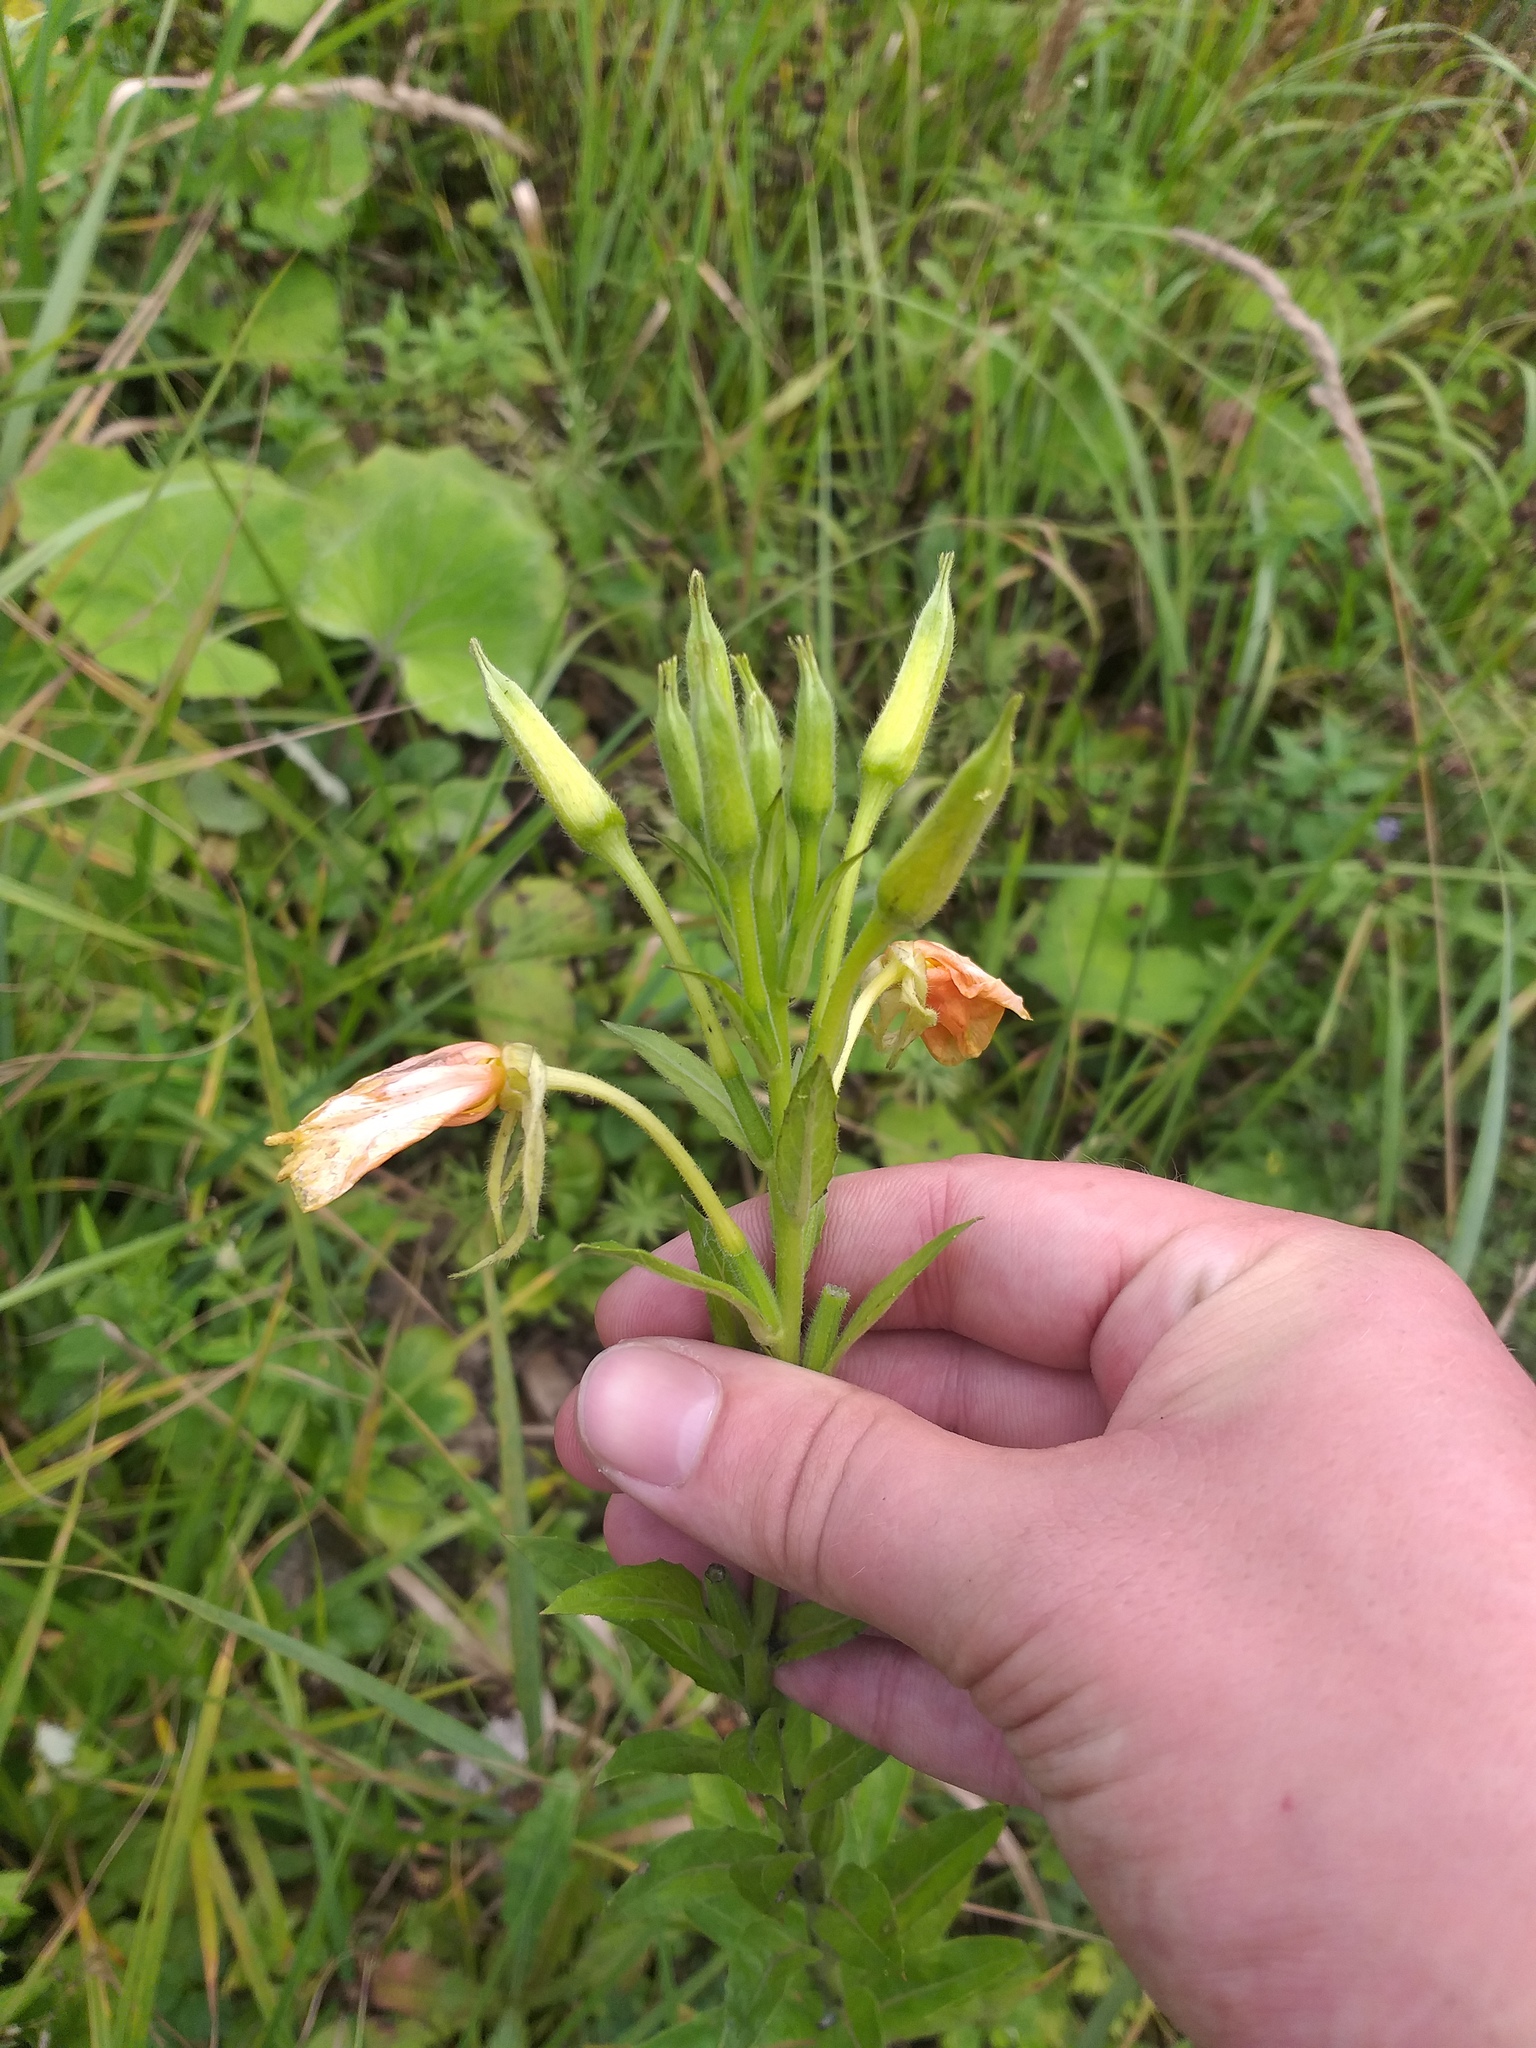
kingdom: Plantae
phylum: Tracheophyta
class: Magnoliopsida
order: Myrtales
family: Onagraceae
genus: Oenothera
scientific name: Oenothera biennis
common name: Common evening-primrose
